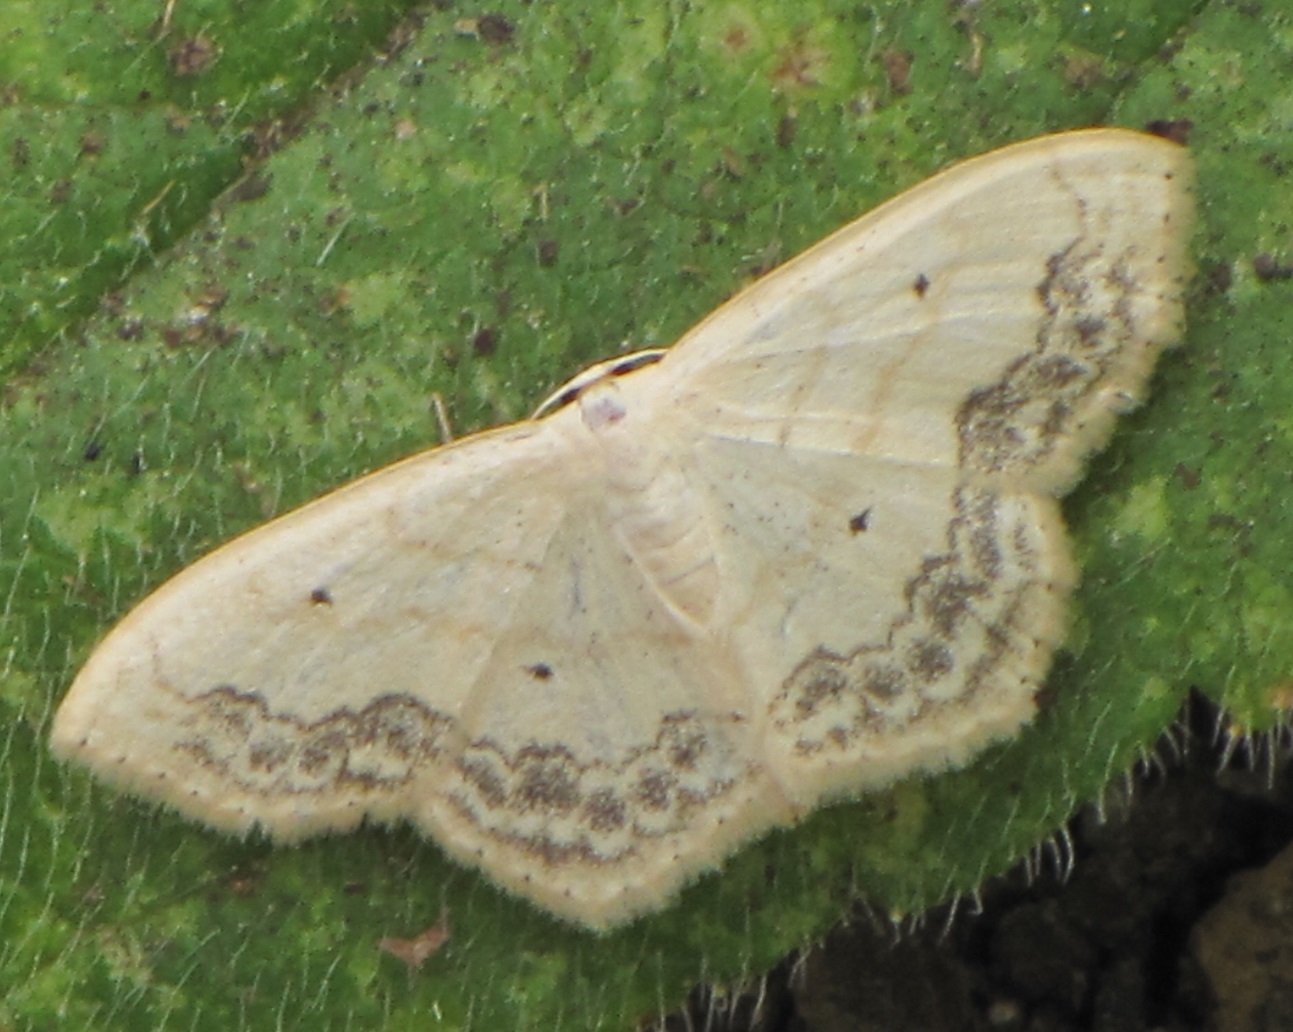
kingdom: Animalia
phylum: Arthropoda
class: Insecta
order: Lepidoptera
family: Geometridae
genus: Scopula
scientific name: Scopula limboundata
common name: Large lace border
